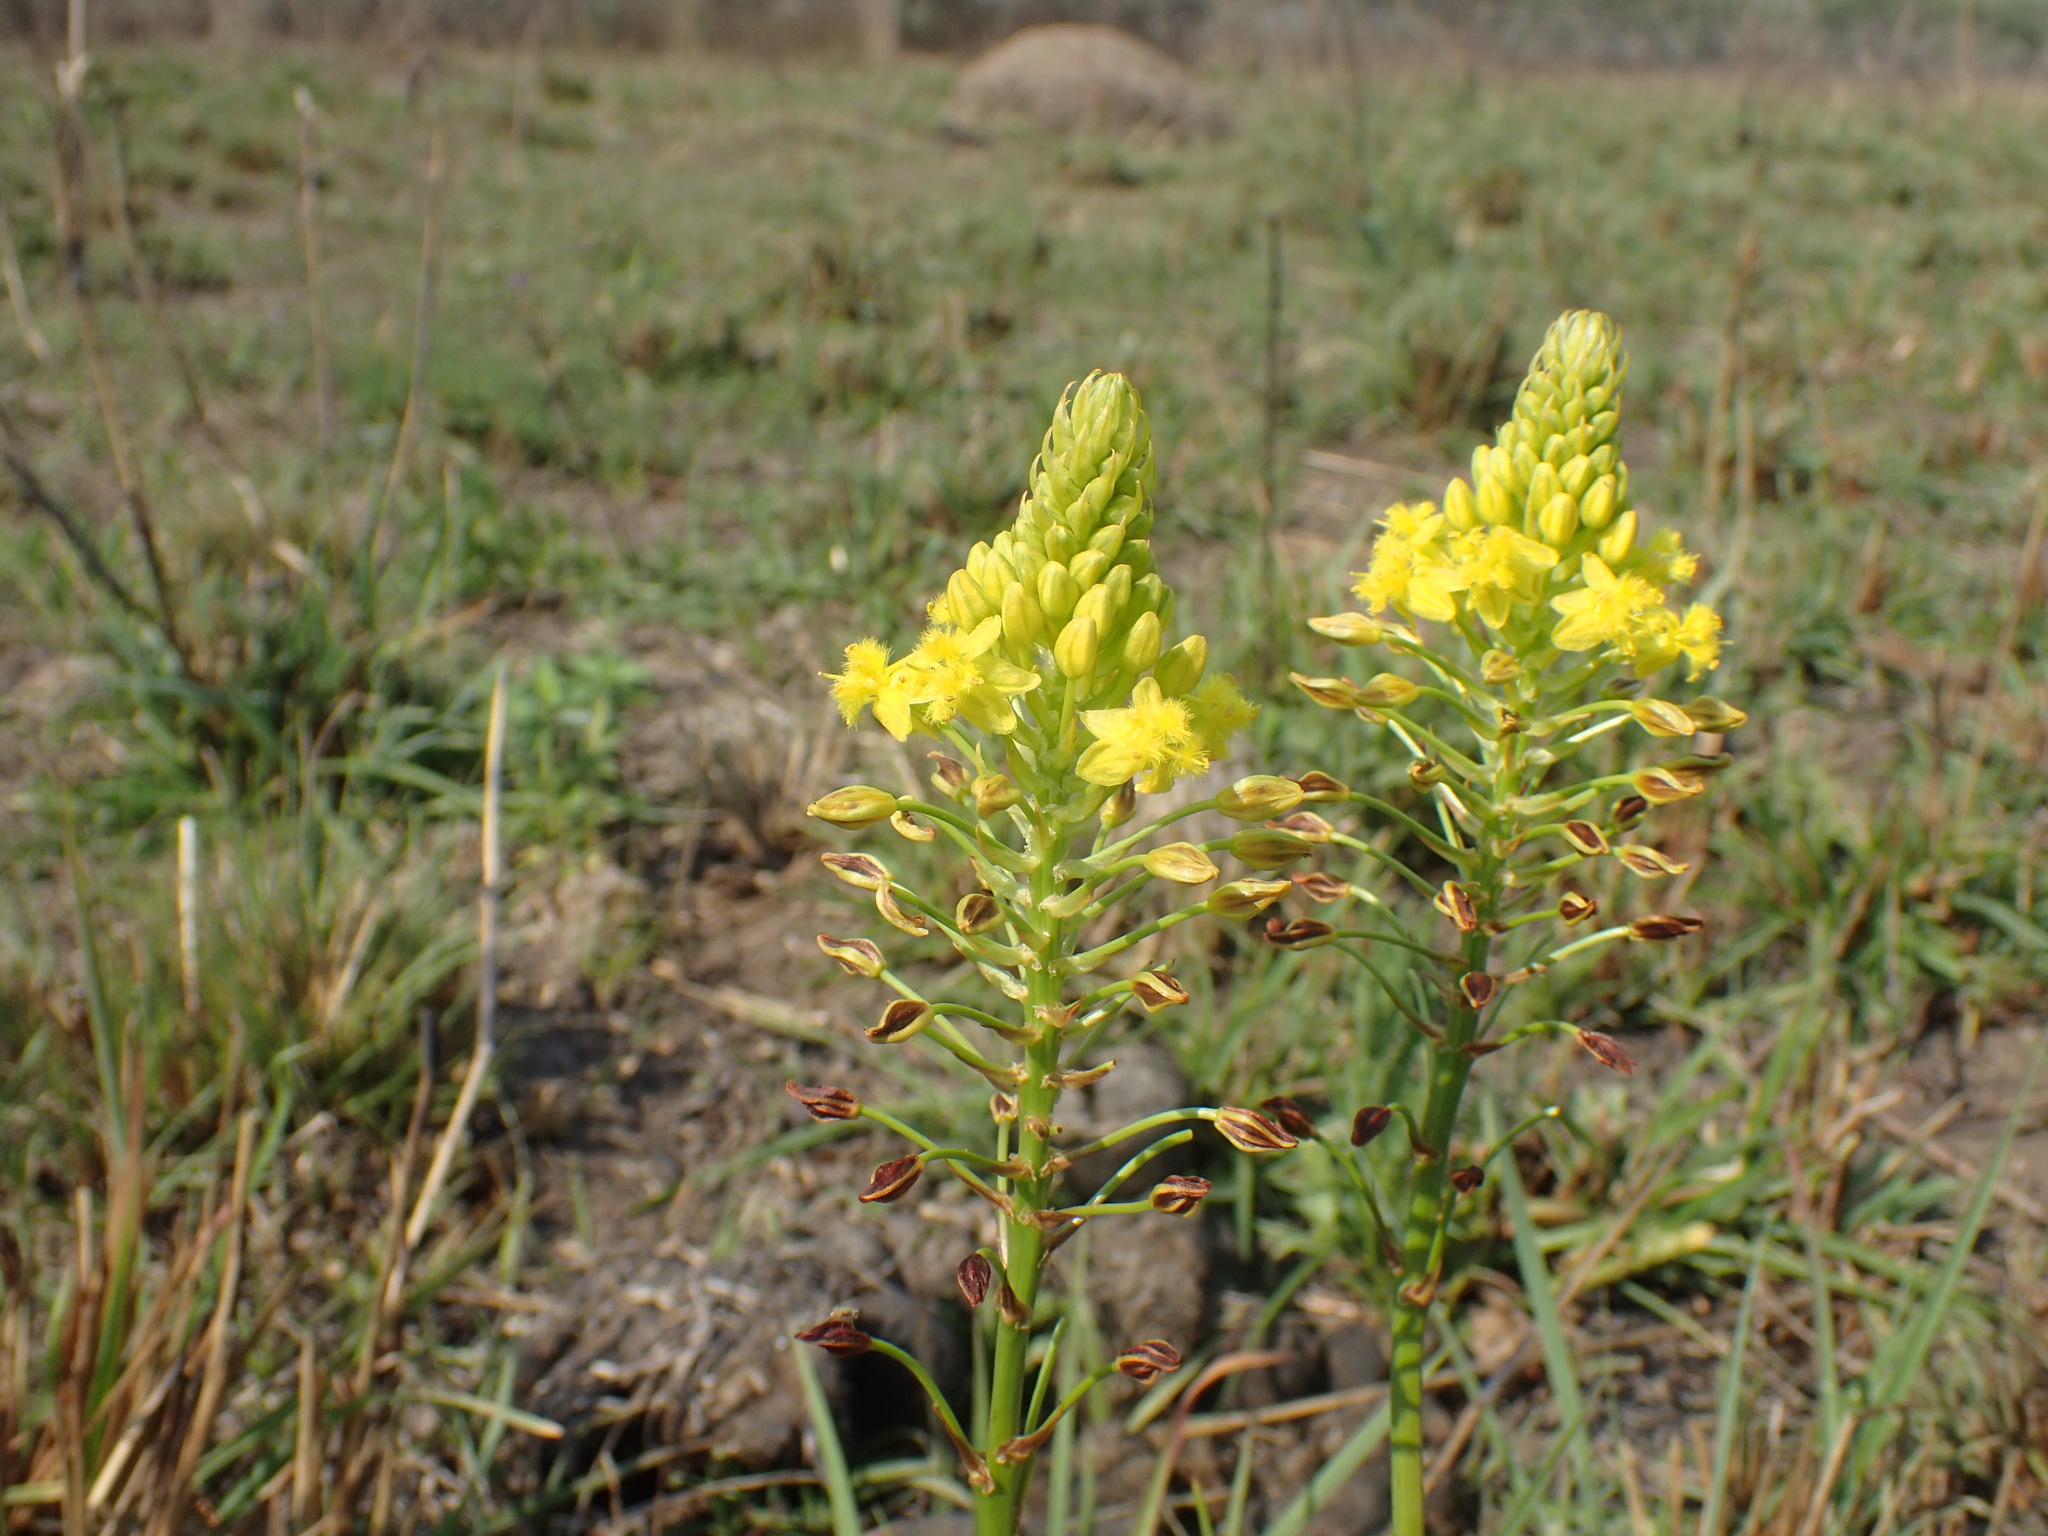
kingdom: Plantae
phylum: Tracheophyta
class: Liliopsida
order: Asparagales
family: Asphodelaceae
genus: Bulbine
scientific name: Bulbine abyssinica
